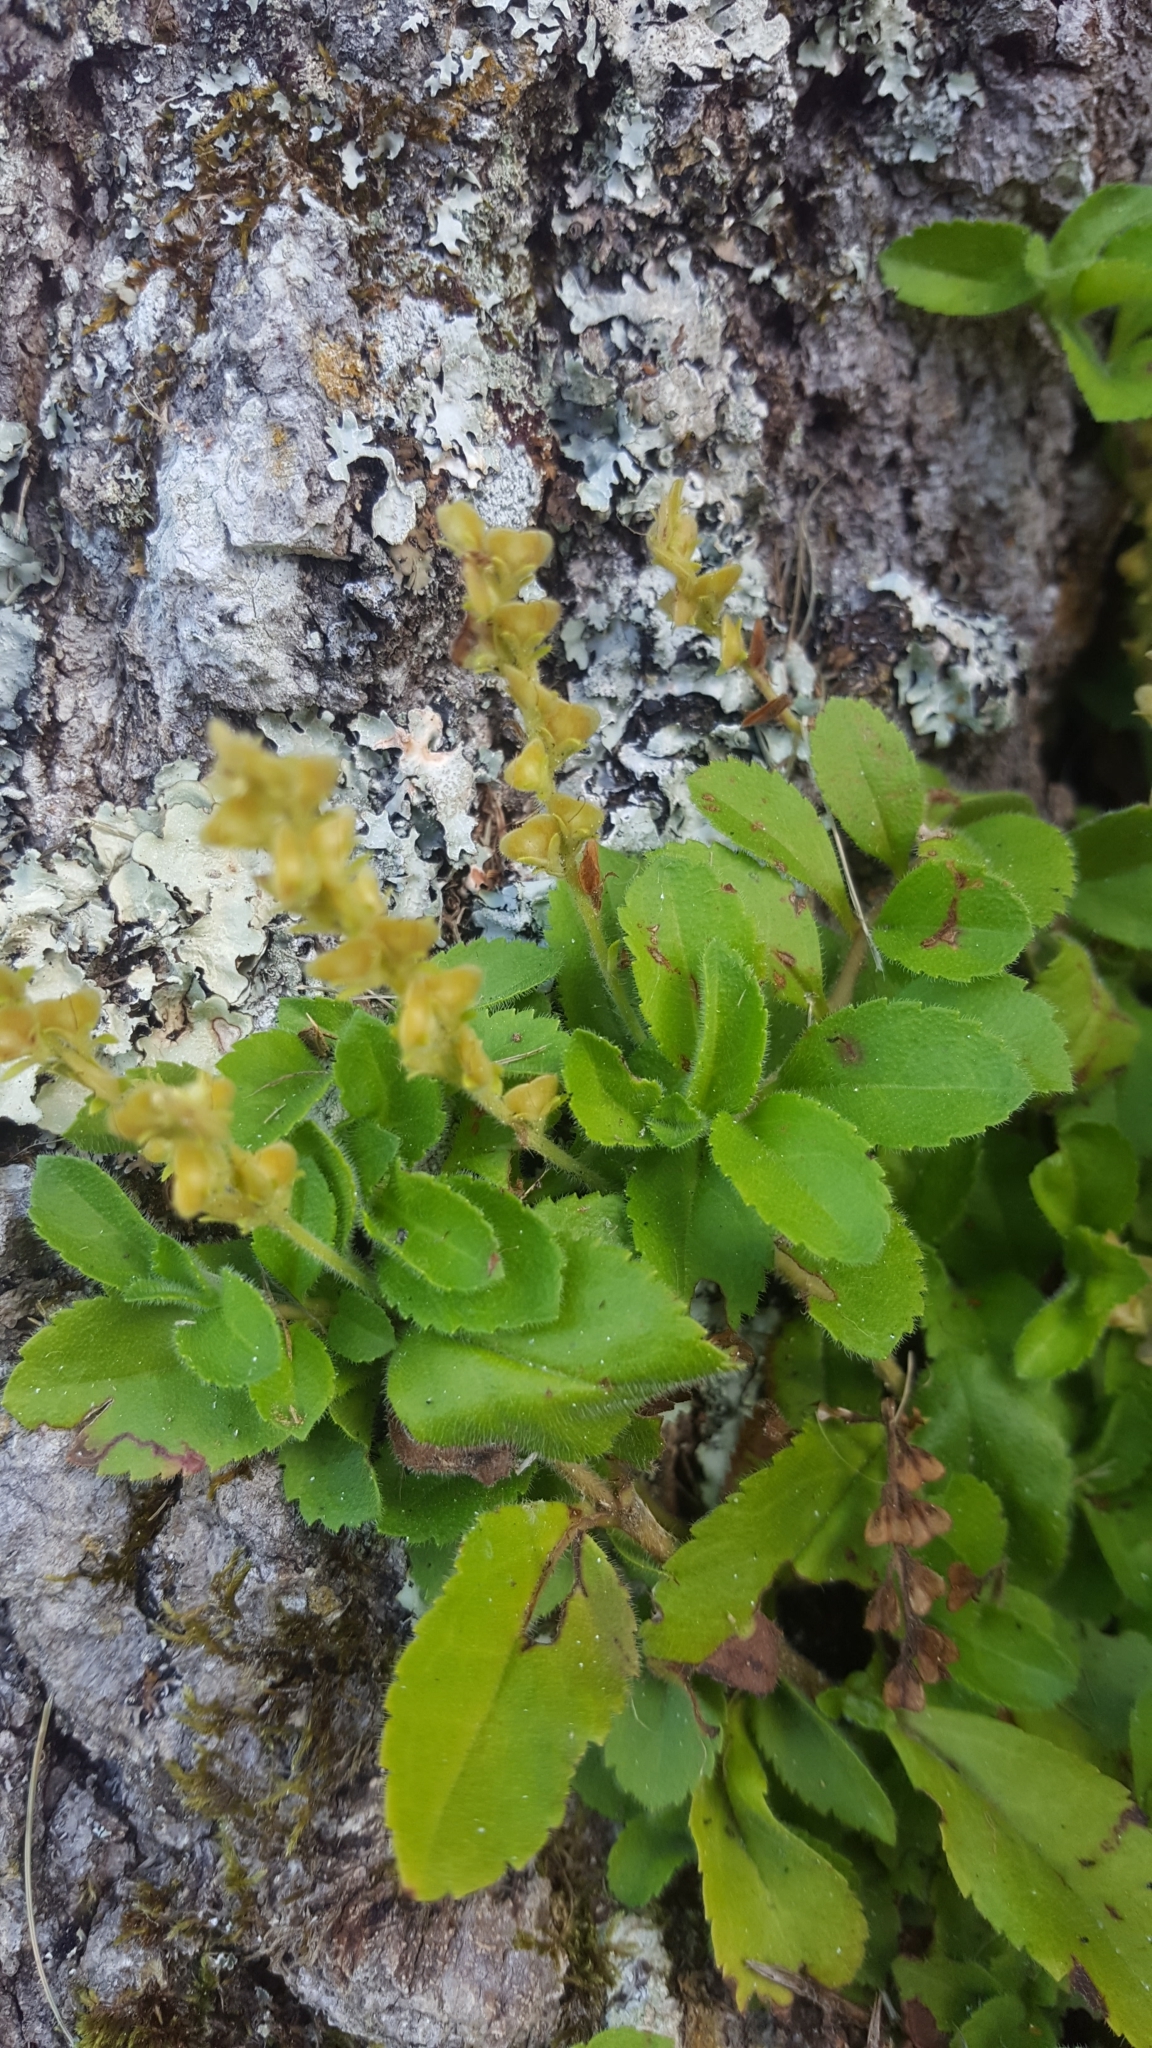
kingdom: Plantae
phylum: Tracheophyta
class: Magnoliopsida
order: Lamiales
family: Plantaginaceae
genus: Veronica
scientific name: Veronica officinalis
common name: Common speedwell
